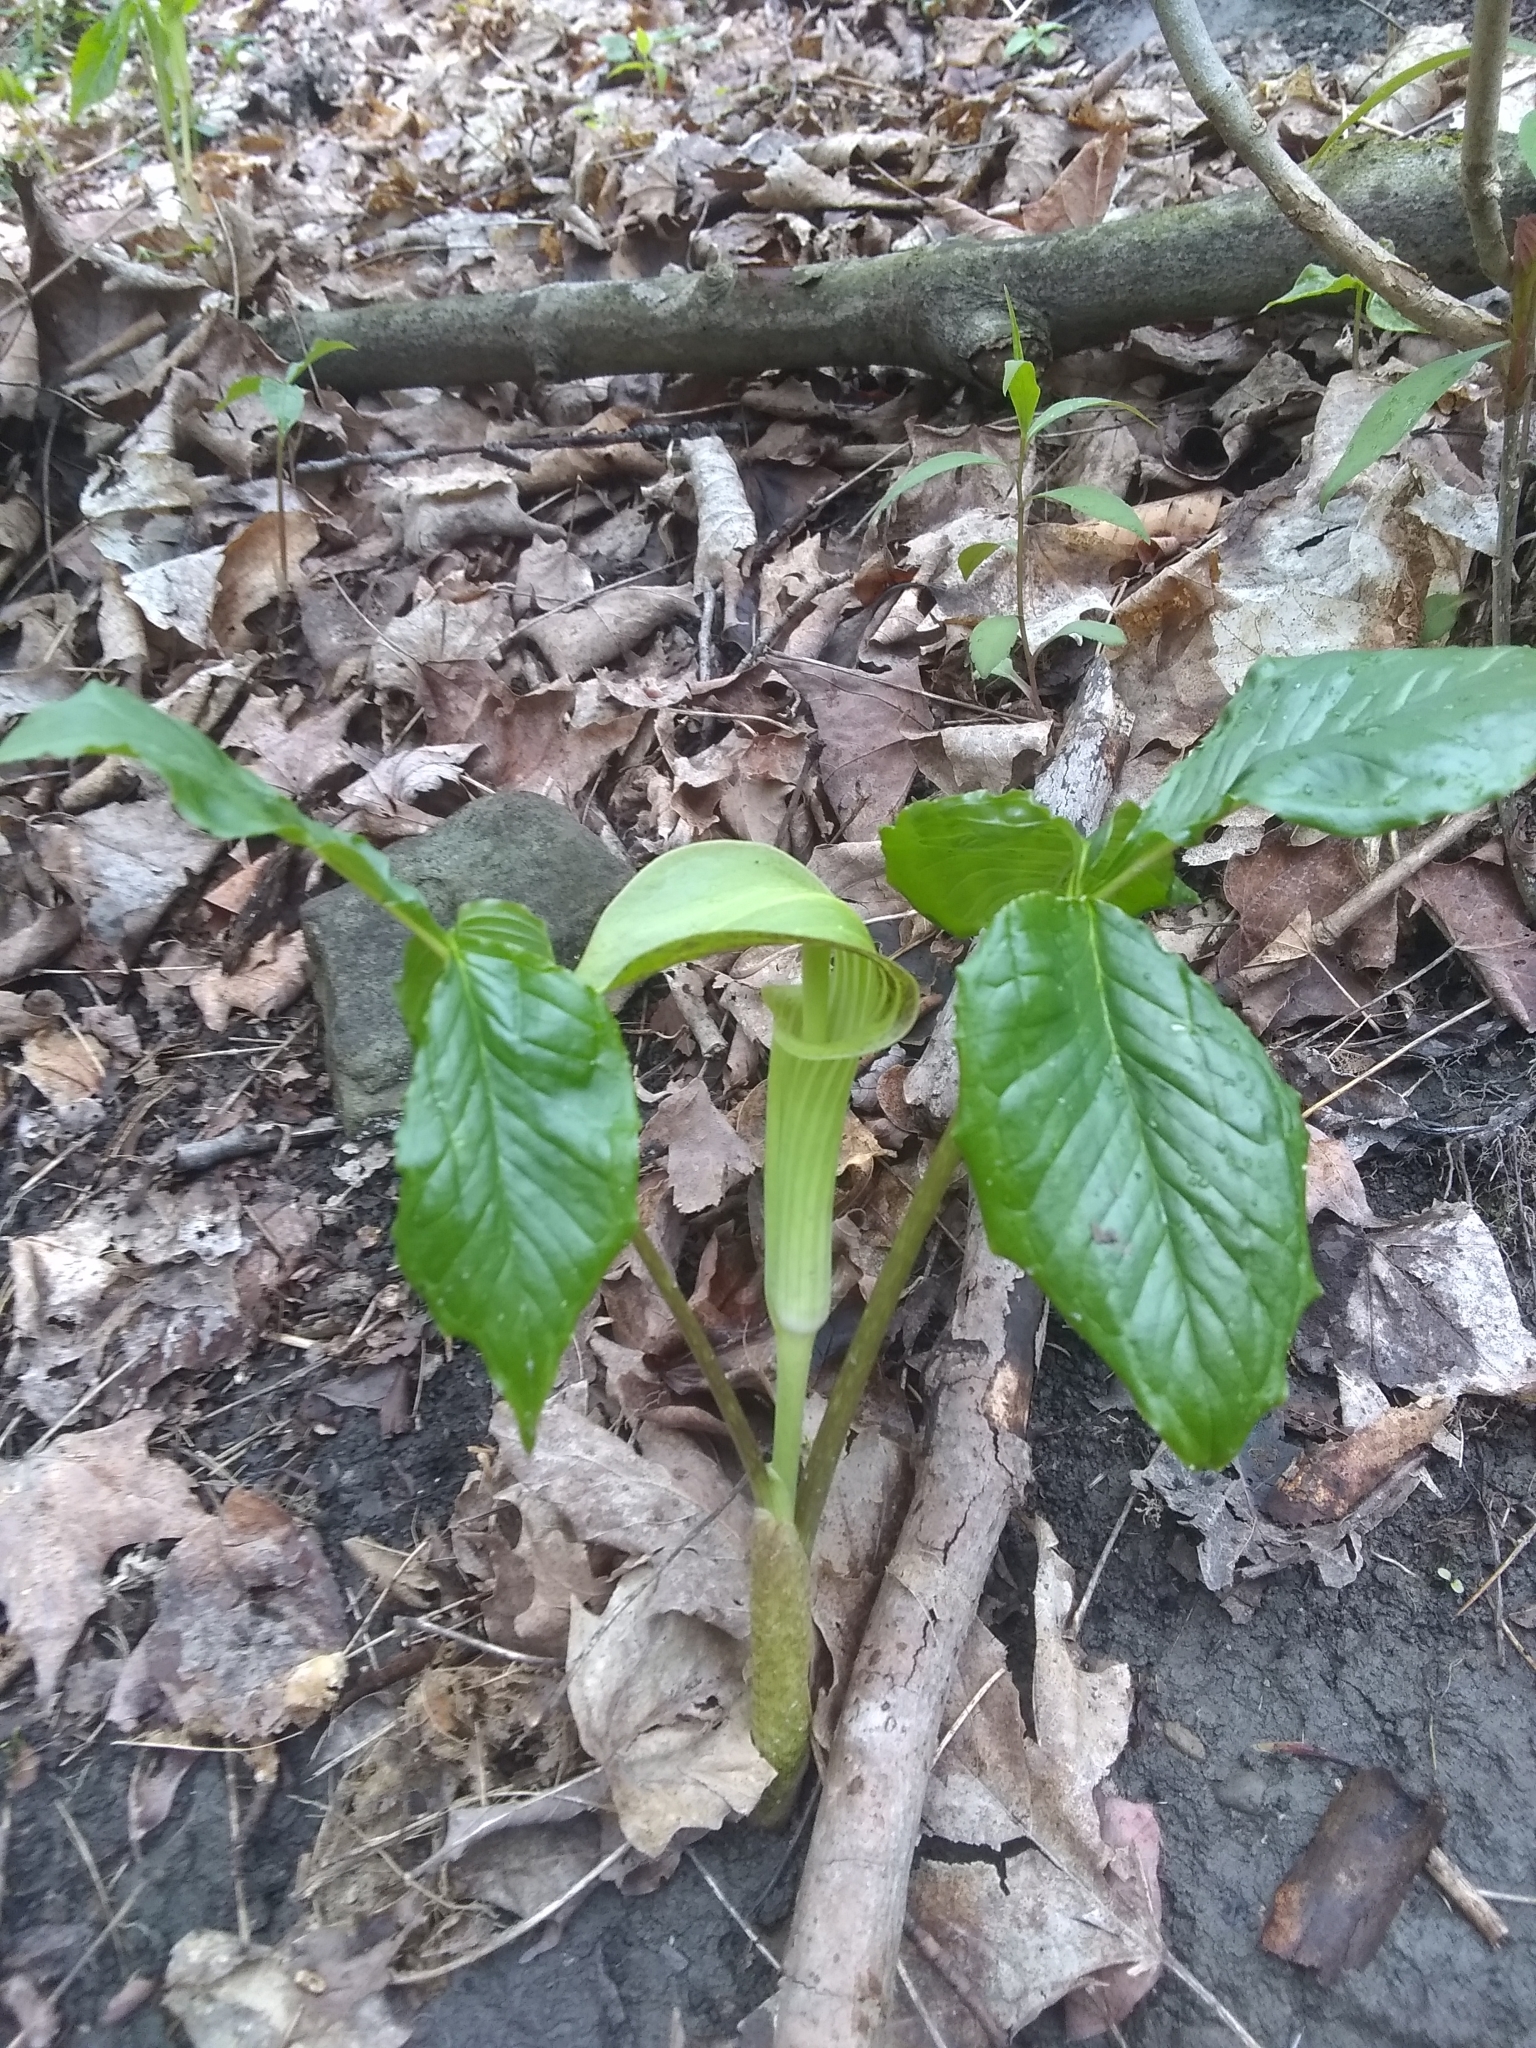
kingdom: Plantae
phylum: Tracheophyta
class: Liliopsida
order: Alismatales
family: Araceae
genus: Arisaema
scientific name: Arisaema triphyllum
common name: Jack-in-the-pulpit
